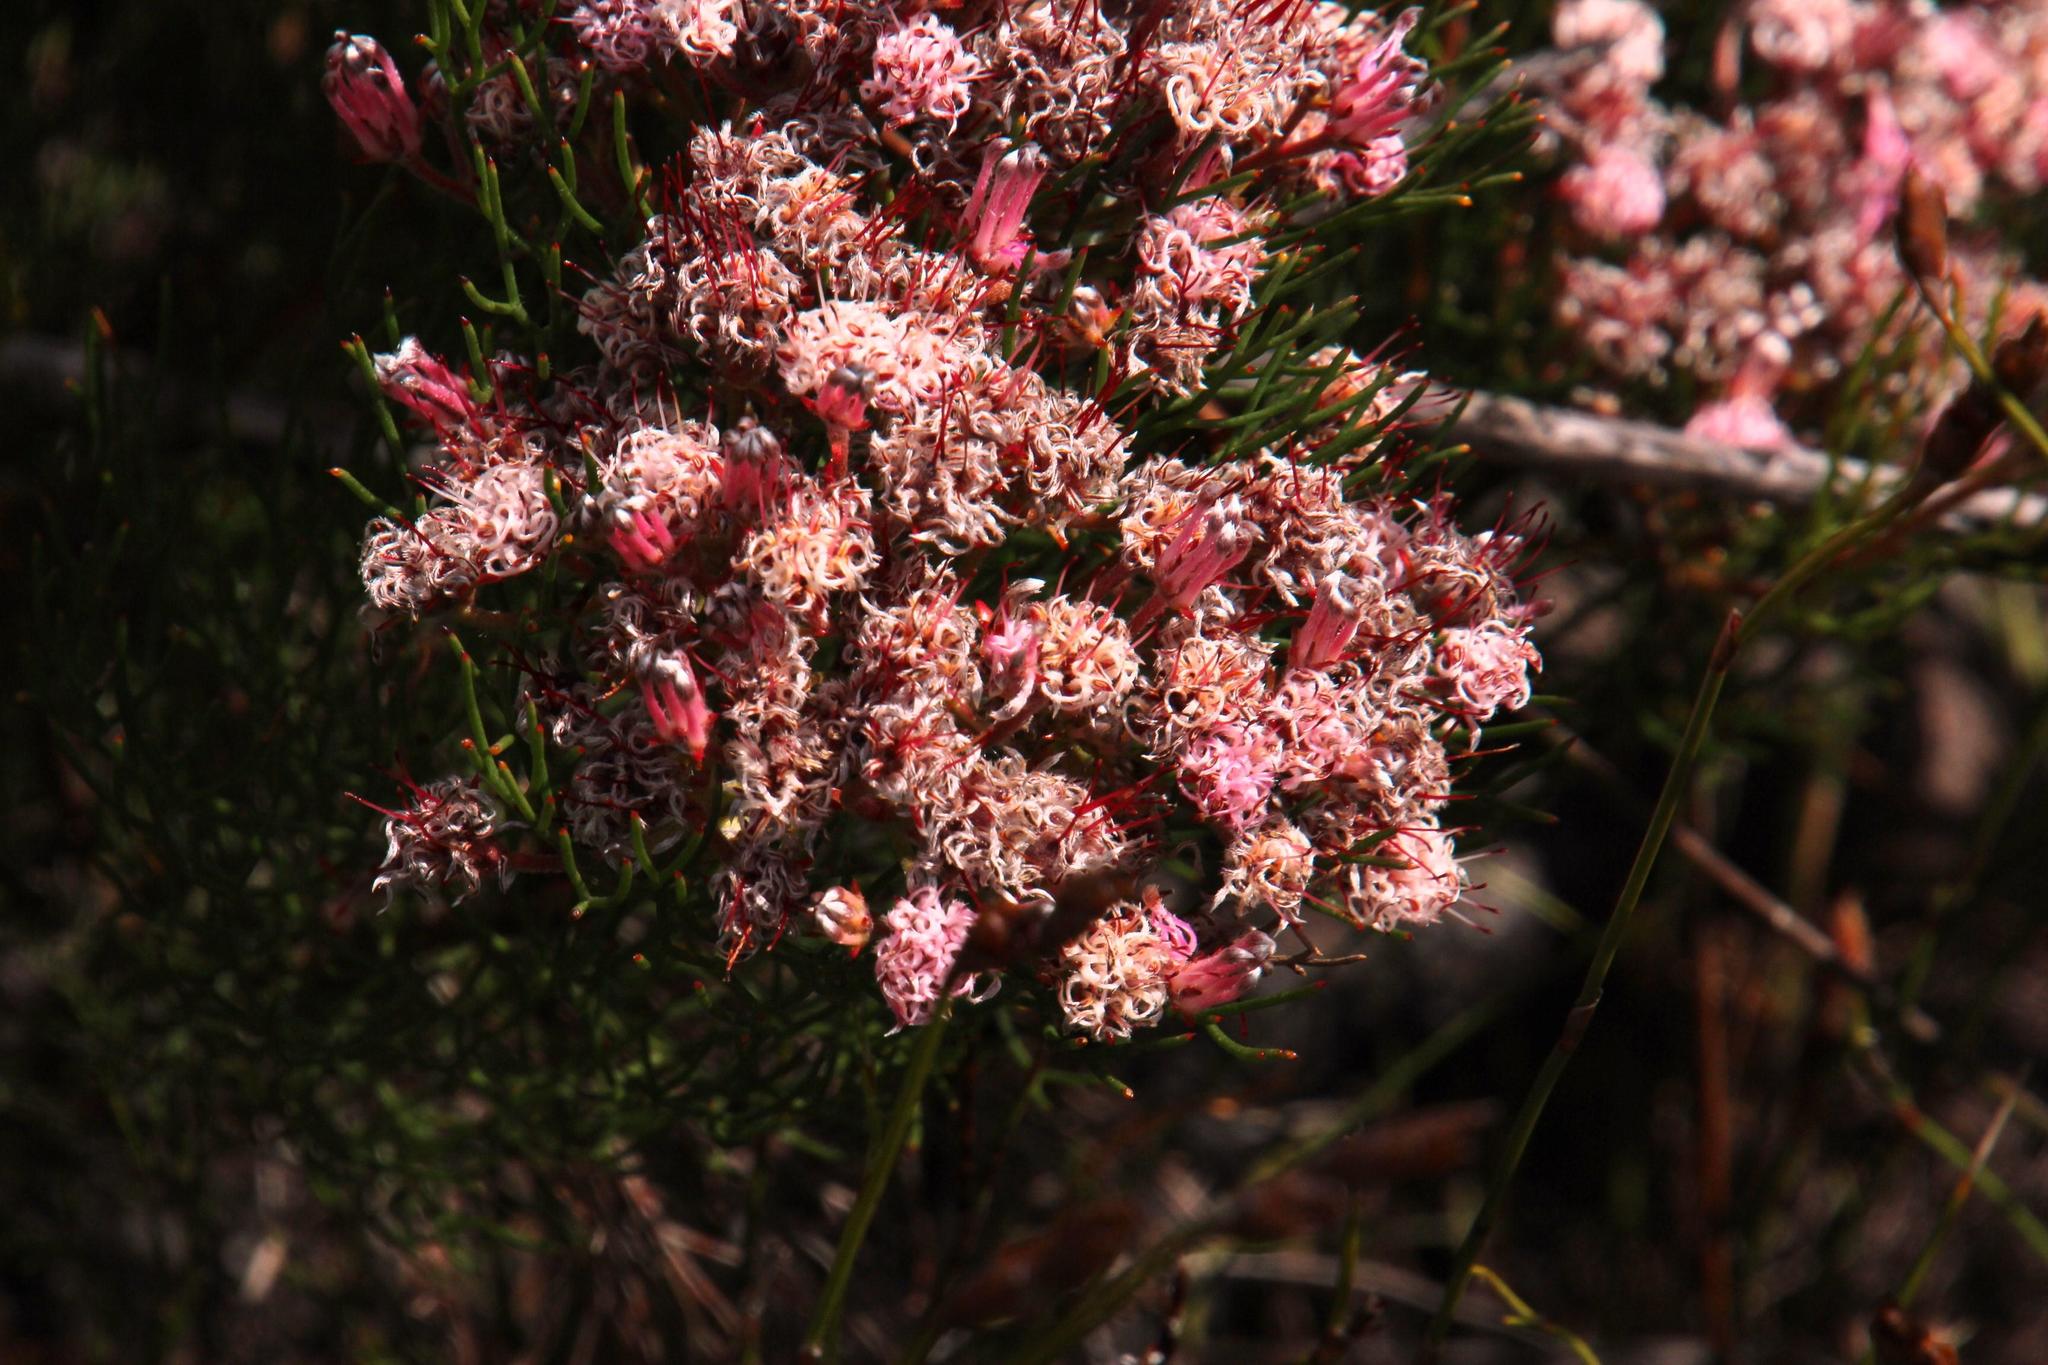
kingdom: Plantae
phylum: Tracheophyta
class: Magnoliopsida
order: Proteales
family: Proteaceae
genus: Serruria
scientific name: Serruria fasciflora
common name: Common pin spiderhead
